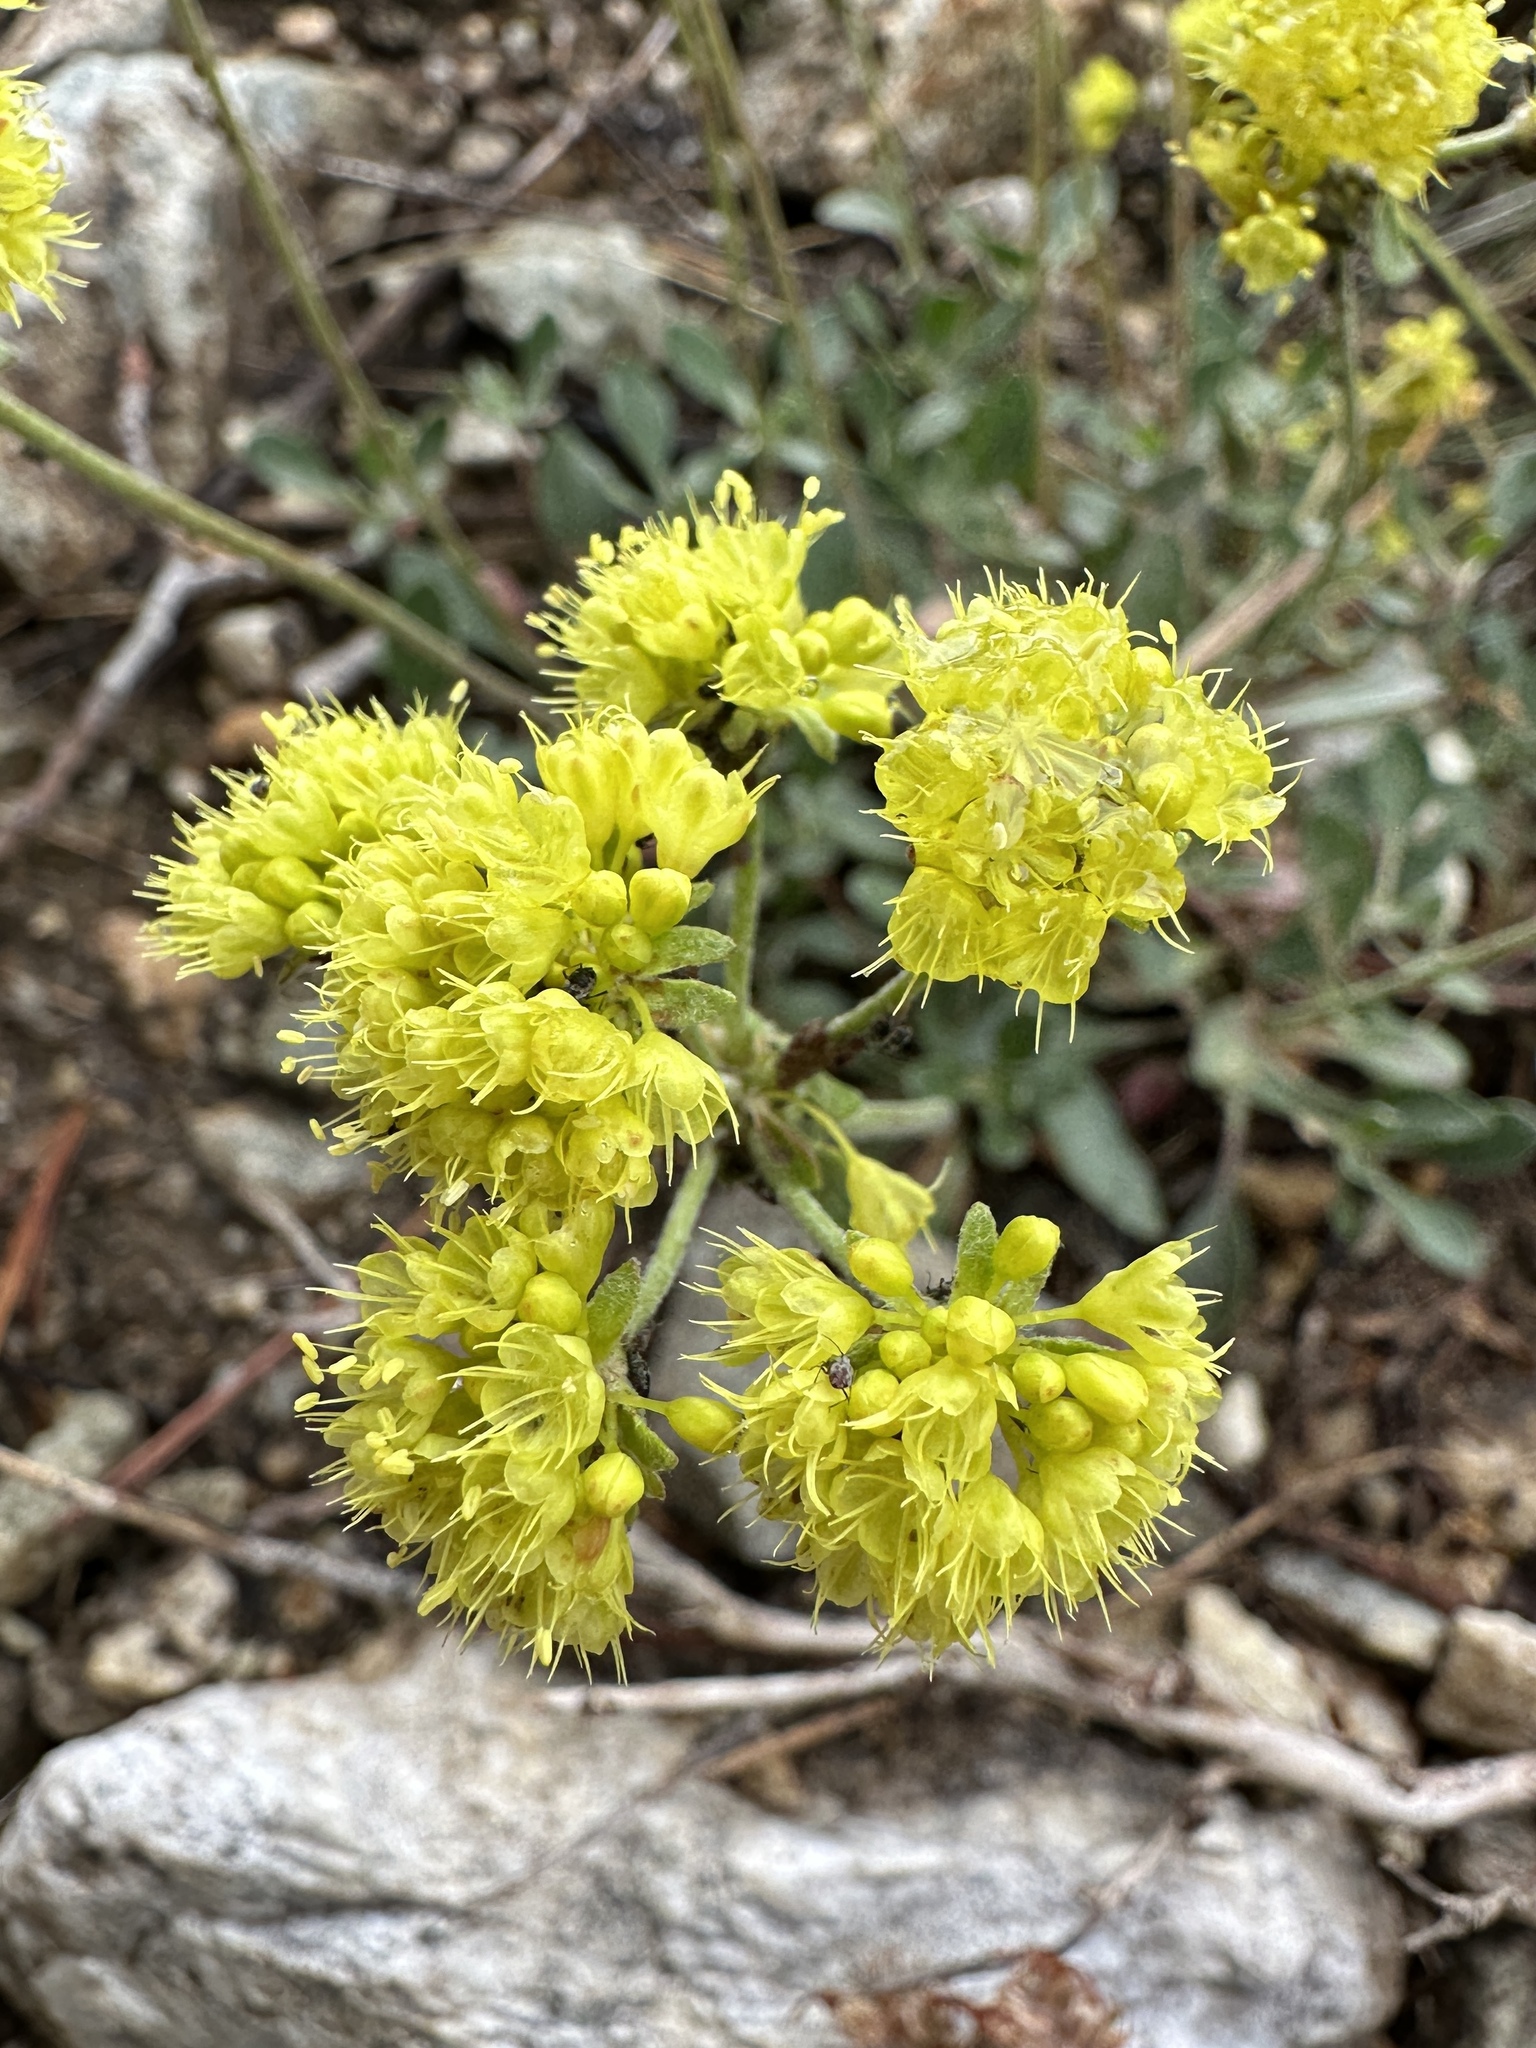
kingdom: Plantae
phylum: Tracheophyta
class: Magnoliopsida
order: Caryophyllales
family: Polygonaceae
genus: Eriogonum
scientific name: Eriogonum umbellatum
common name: Sulfur-buckwheat
